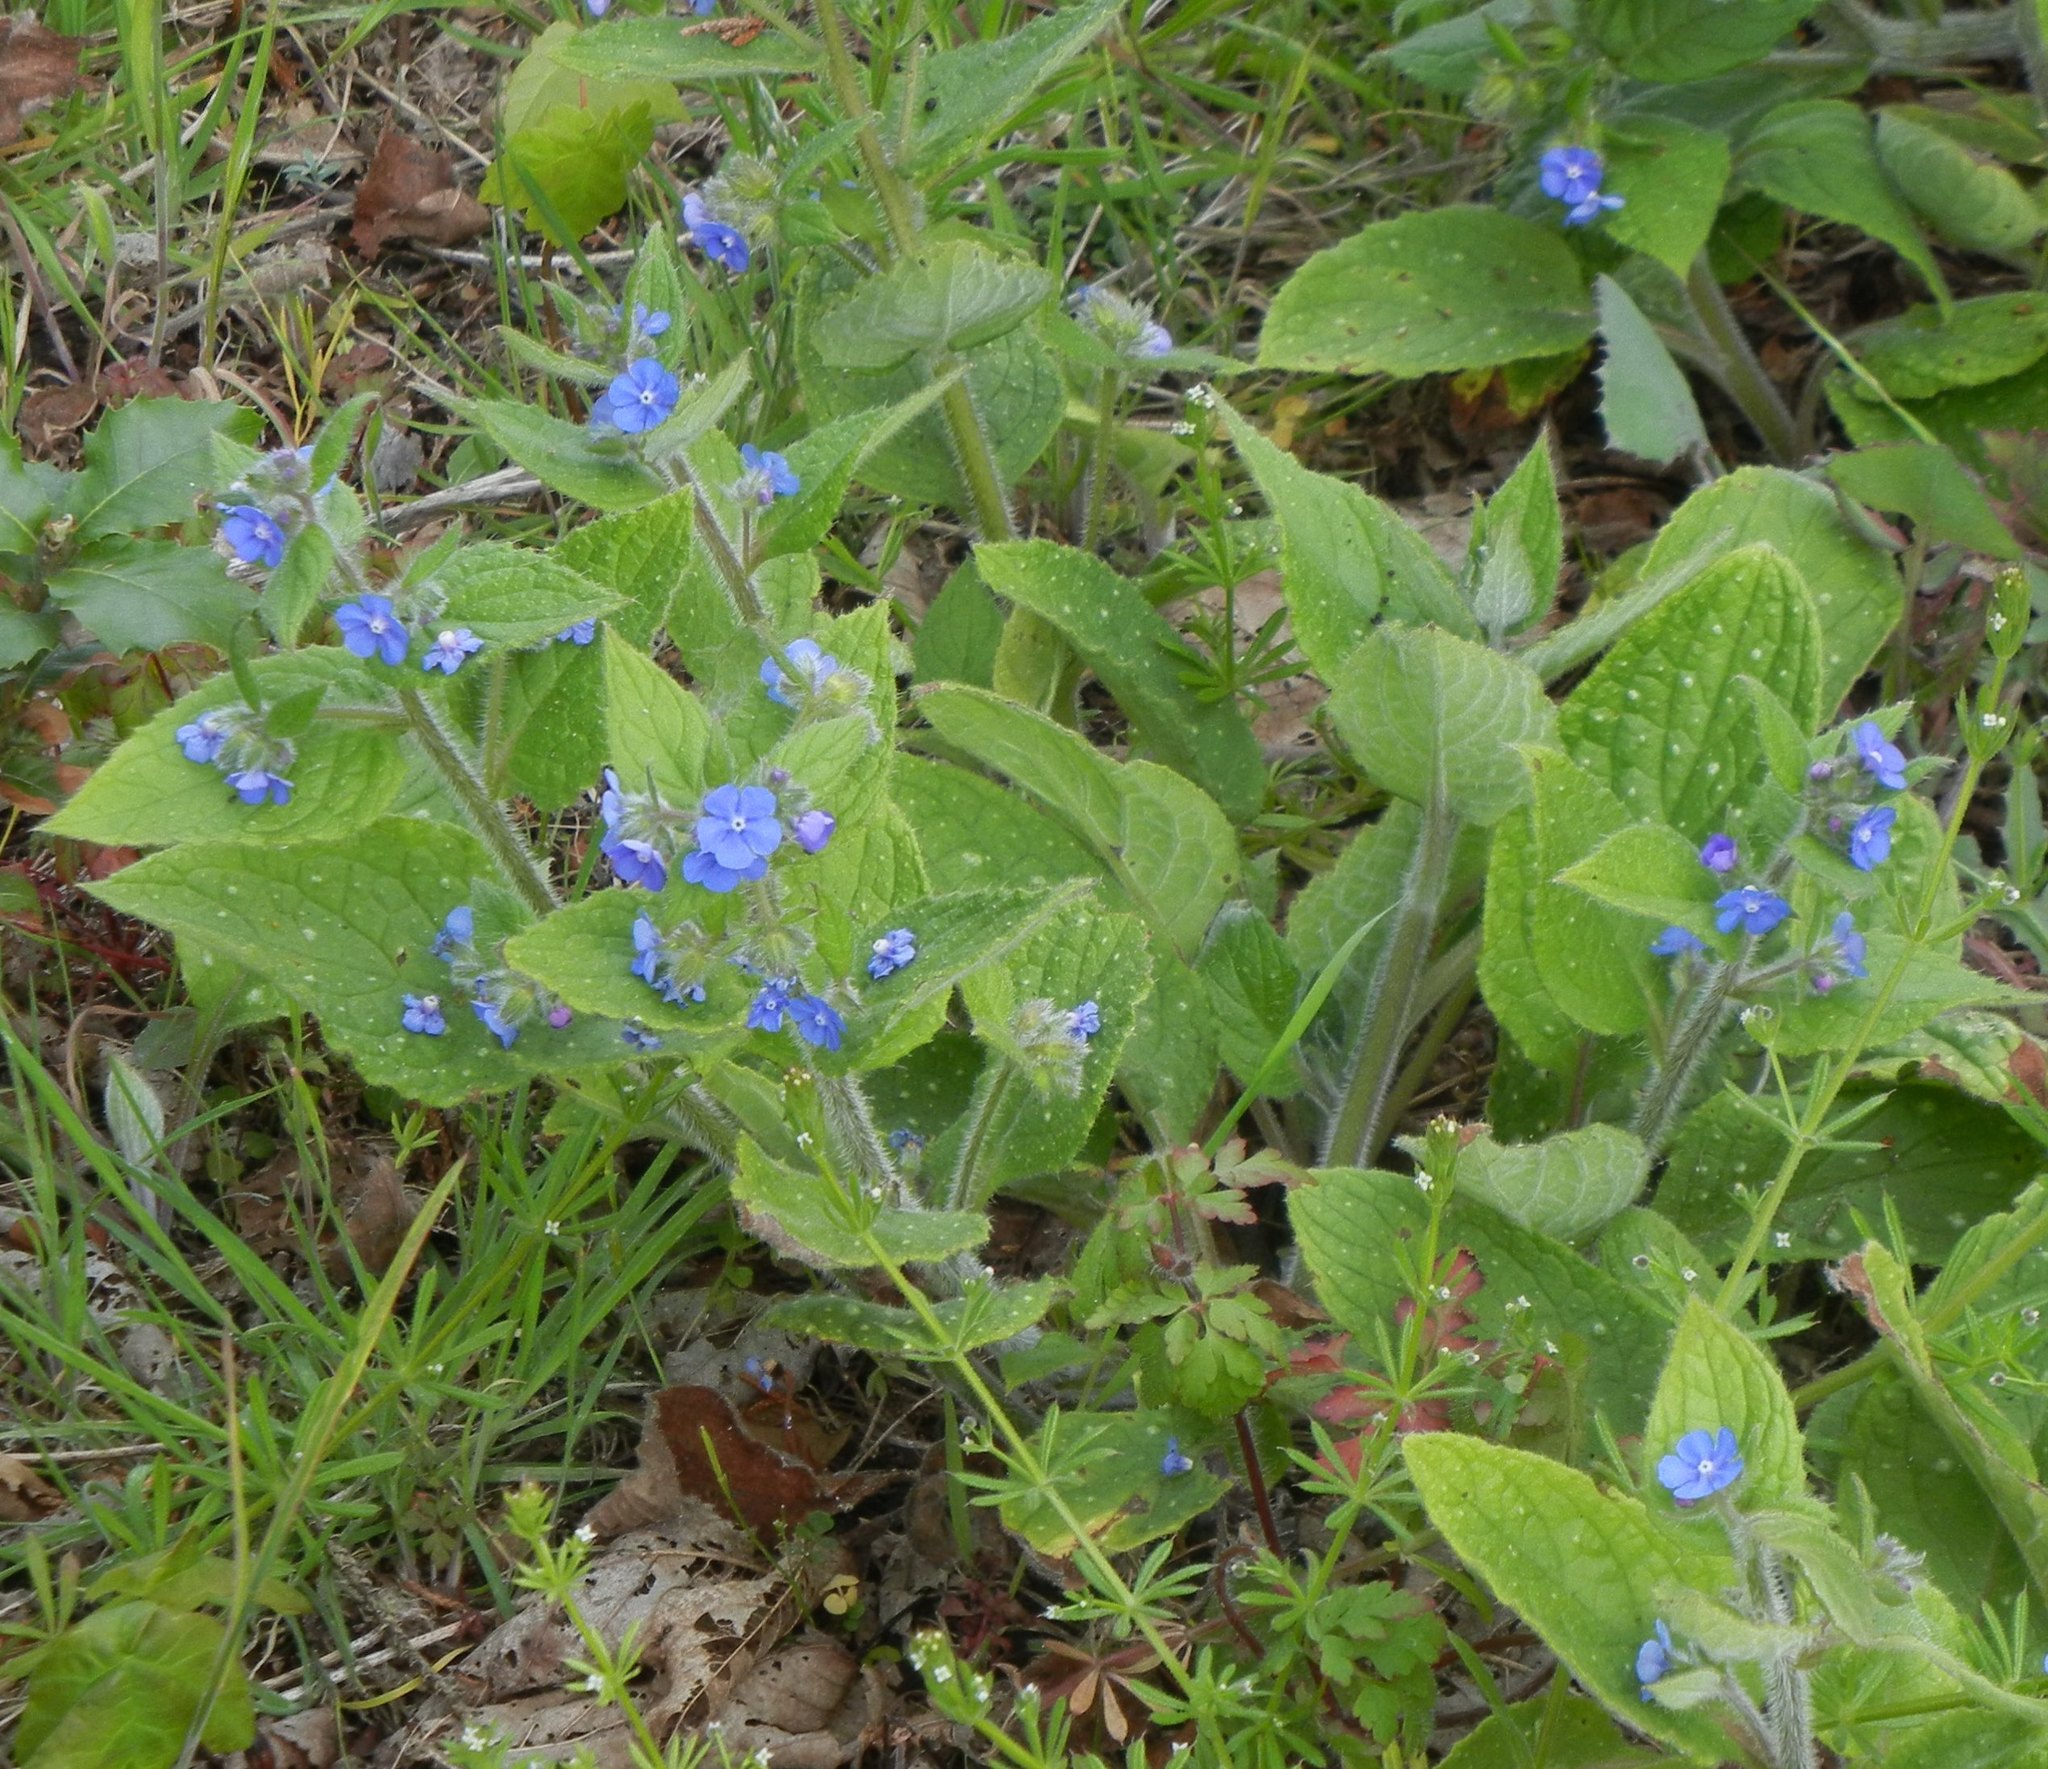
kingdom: Plantae
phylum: Tracheophyta
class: Magnoliopsida
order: Boraginales
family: Boraginaceae
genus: Pentaglottis
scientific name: Pentaglottis sempervirens
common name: Green alkanet
